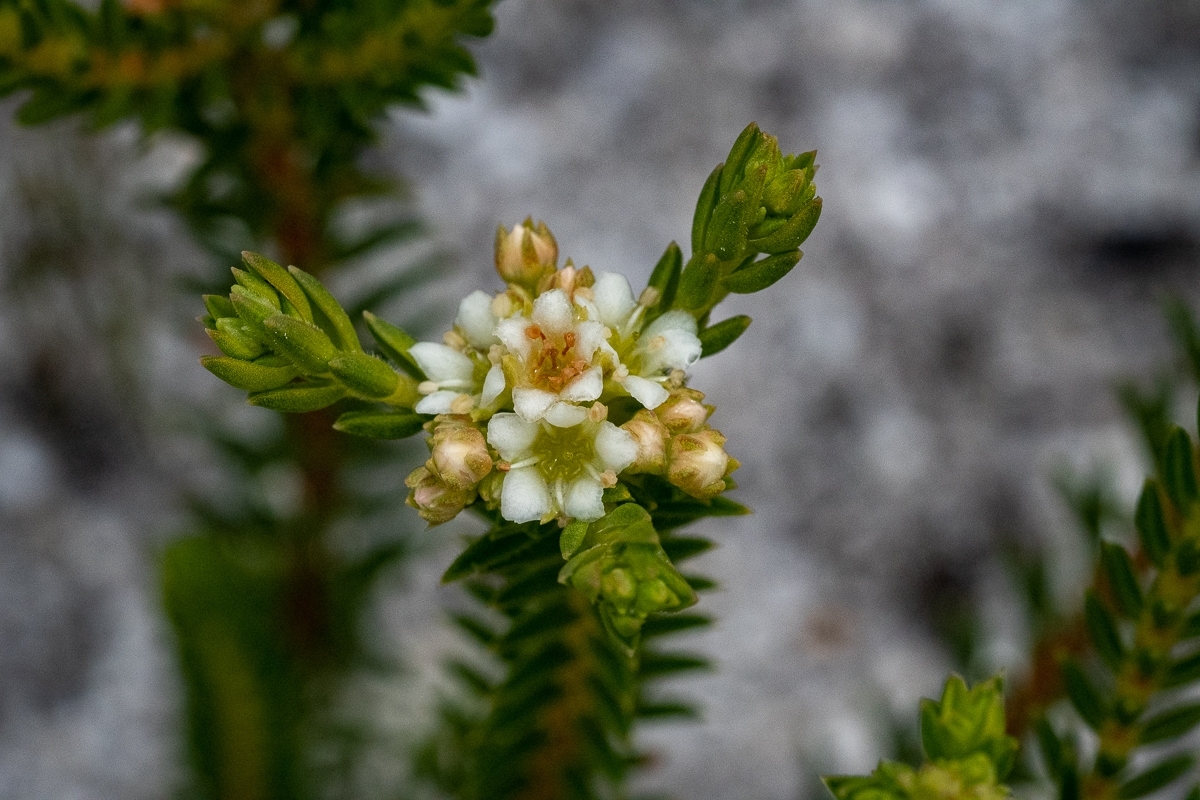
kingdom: Plantae
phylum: Tracheophyta
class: Magnoliopsida
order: Sapindales
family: Rutaceae
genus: Diosma
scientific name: Diosma oppositifolia
